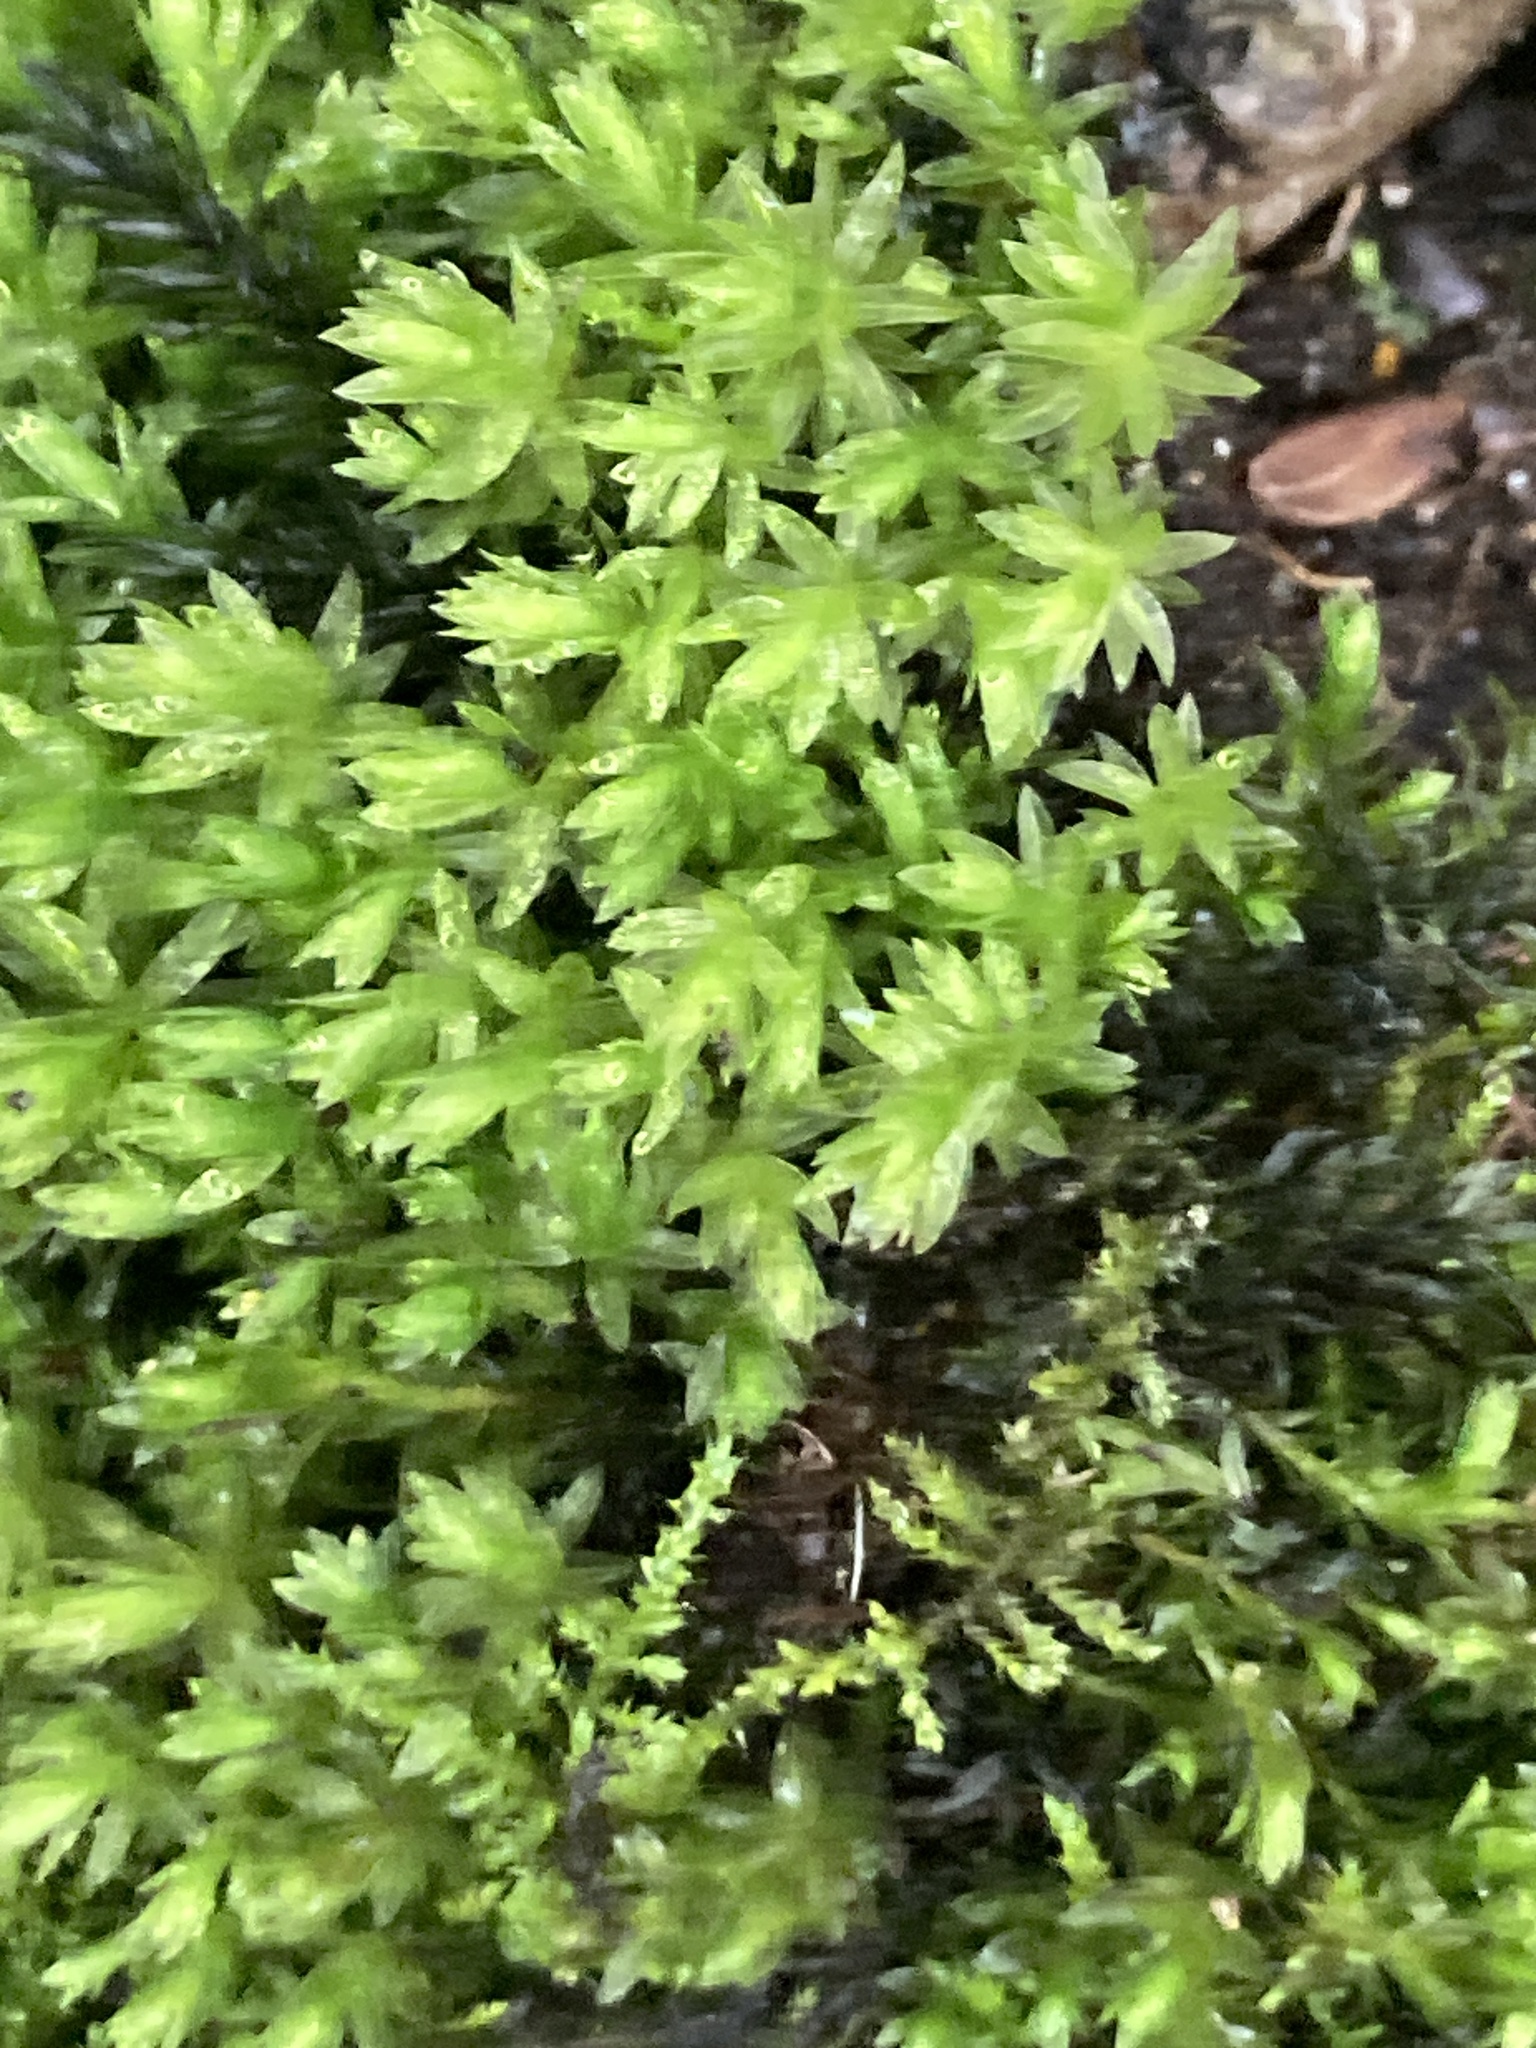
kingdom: Plantae
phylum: Bryophyta
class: Bryopsida
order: Bryales
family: Mniaceae
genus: Mnium
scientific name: Mnium hornum
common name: Swan's-neck leafy moss
